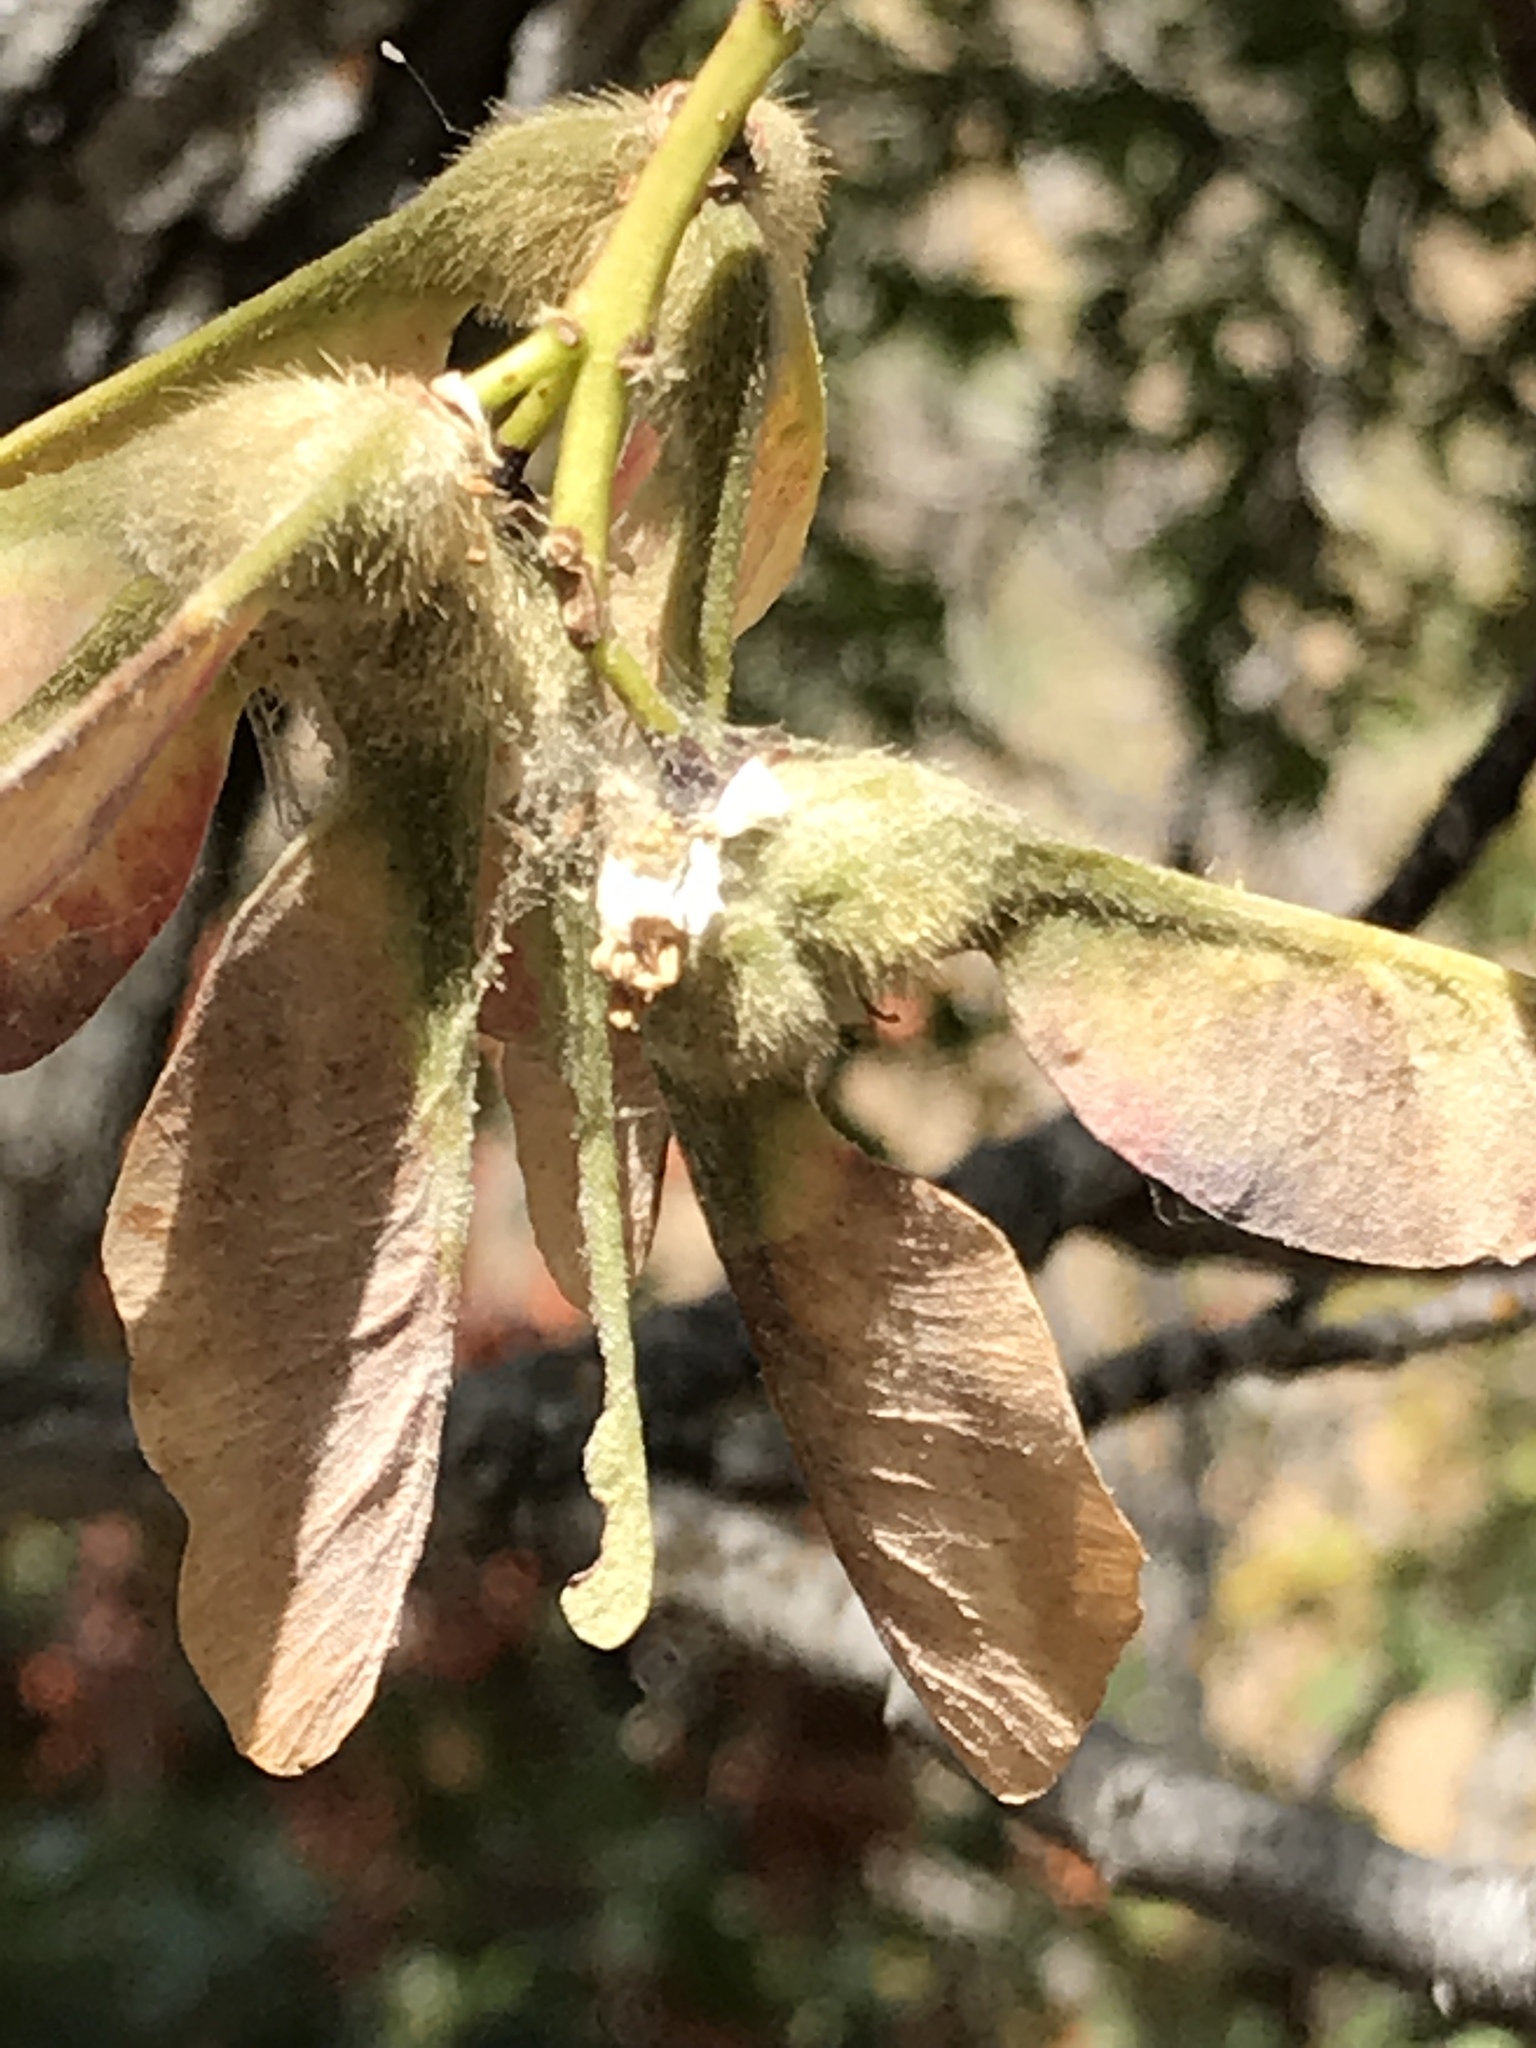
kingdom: Plantae
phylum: Tracheophyta
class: Magnoliopsida
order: Sapindales
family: Sapindaceae
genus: Acer
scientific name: Acer macrophyllum
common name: Oregon maple
